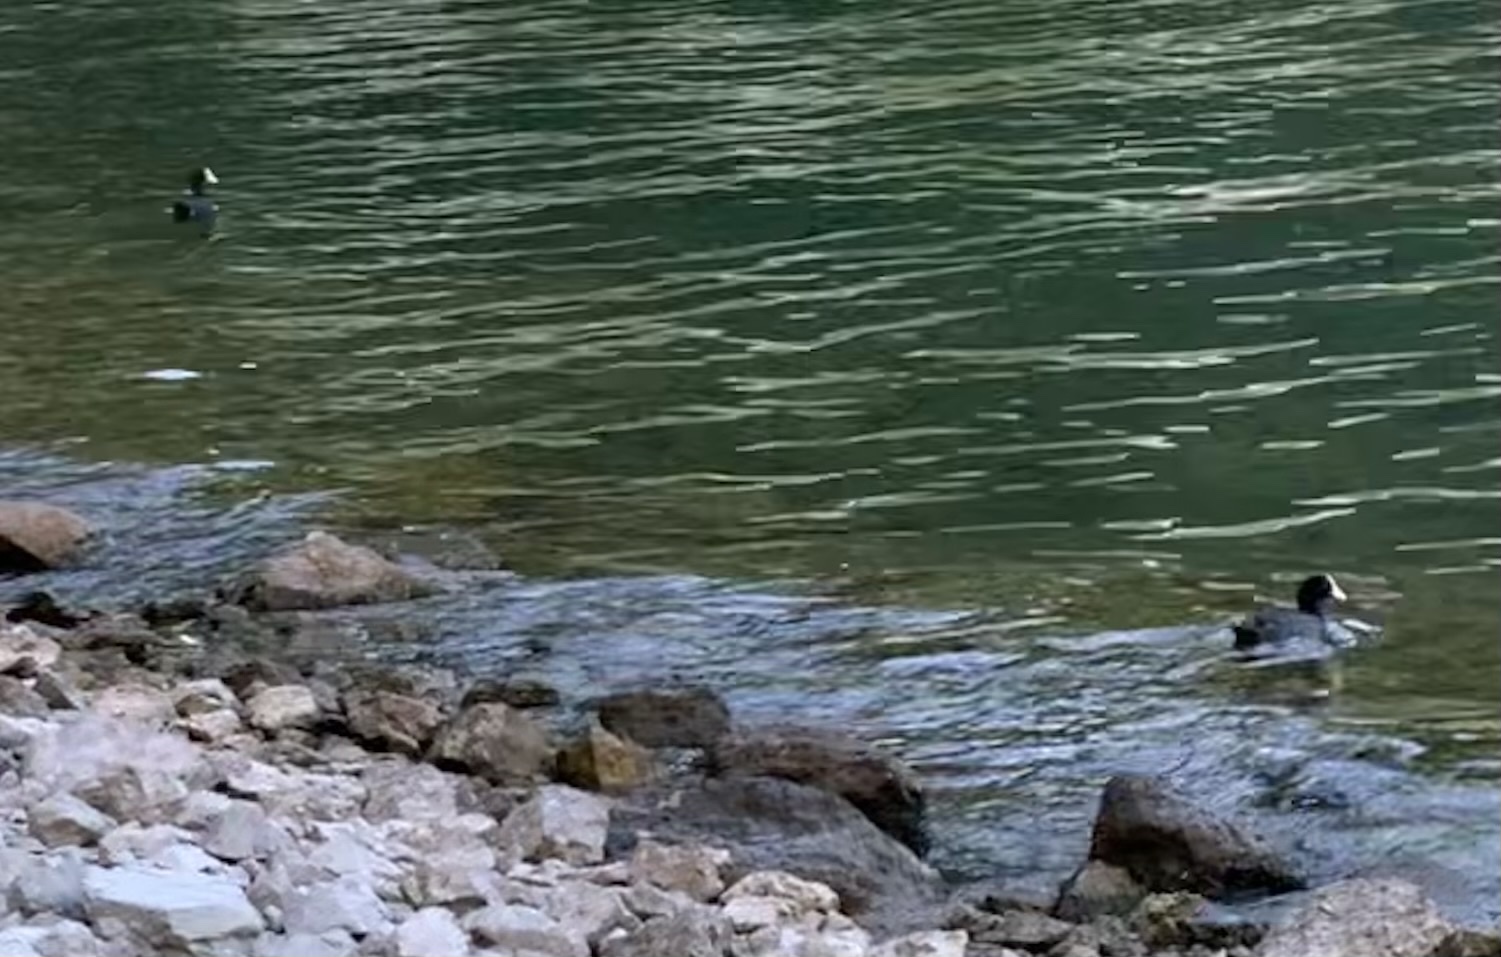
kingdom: Animalia
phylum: Chordata
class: Aves
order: Gruiformes
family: Rallidae
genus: Fulica
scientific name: Fulica atra
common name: Eurasian coot
